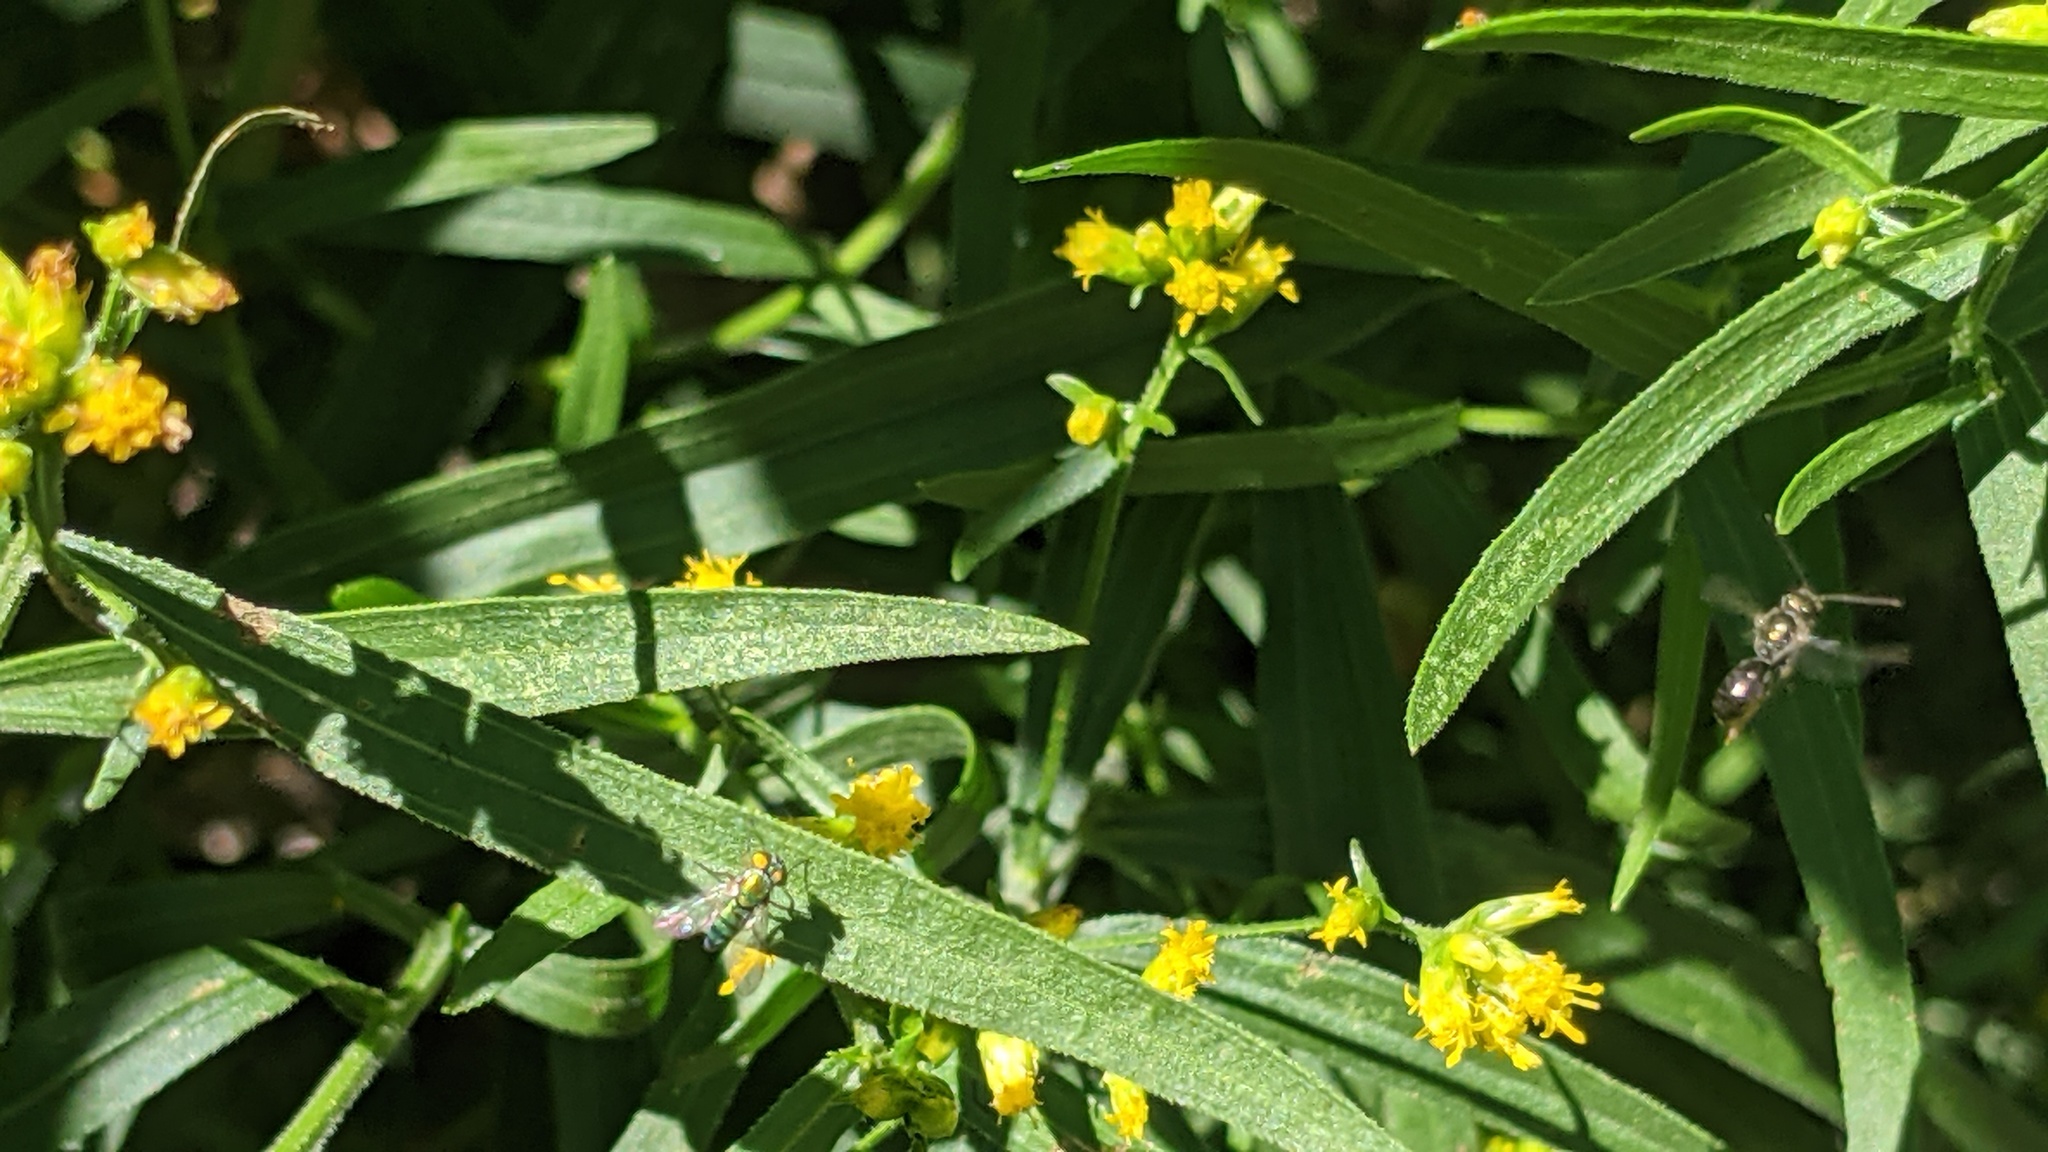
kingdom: Animalia
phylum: Arthropoda
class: Insecta
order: Hymenoptera
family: Halictidae
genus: Dialictus
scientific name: Dialictus
